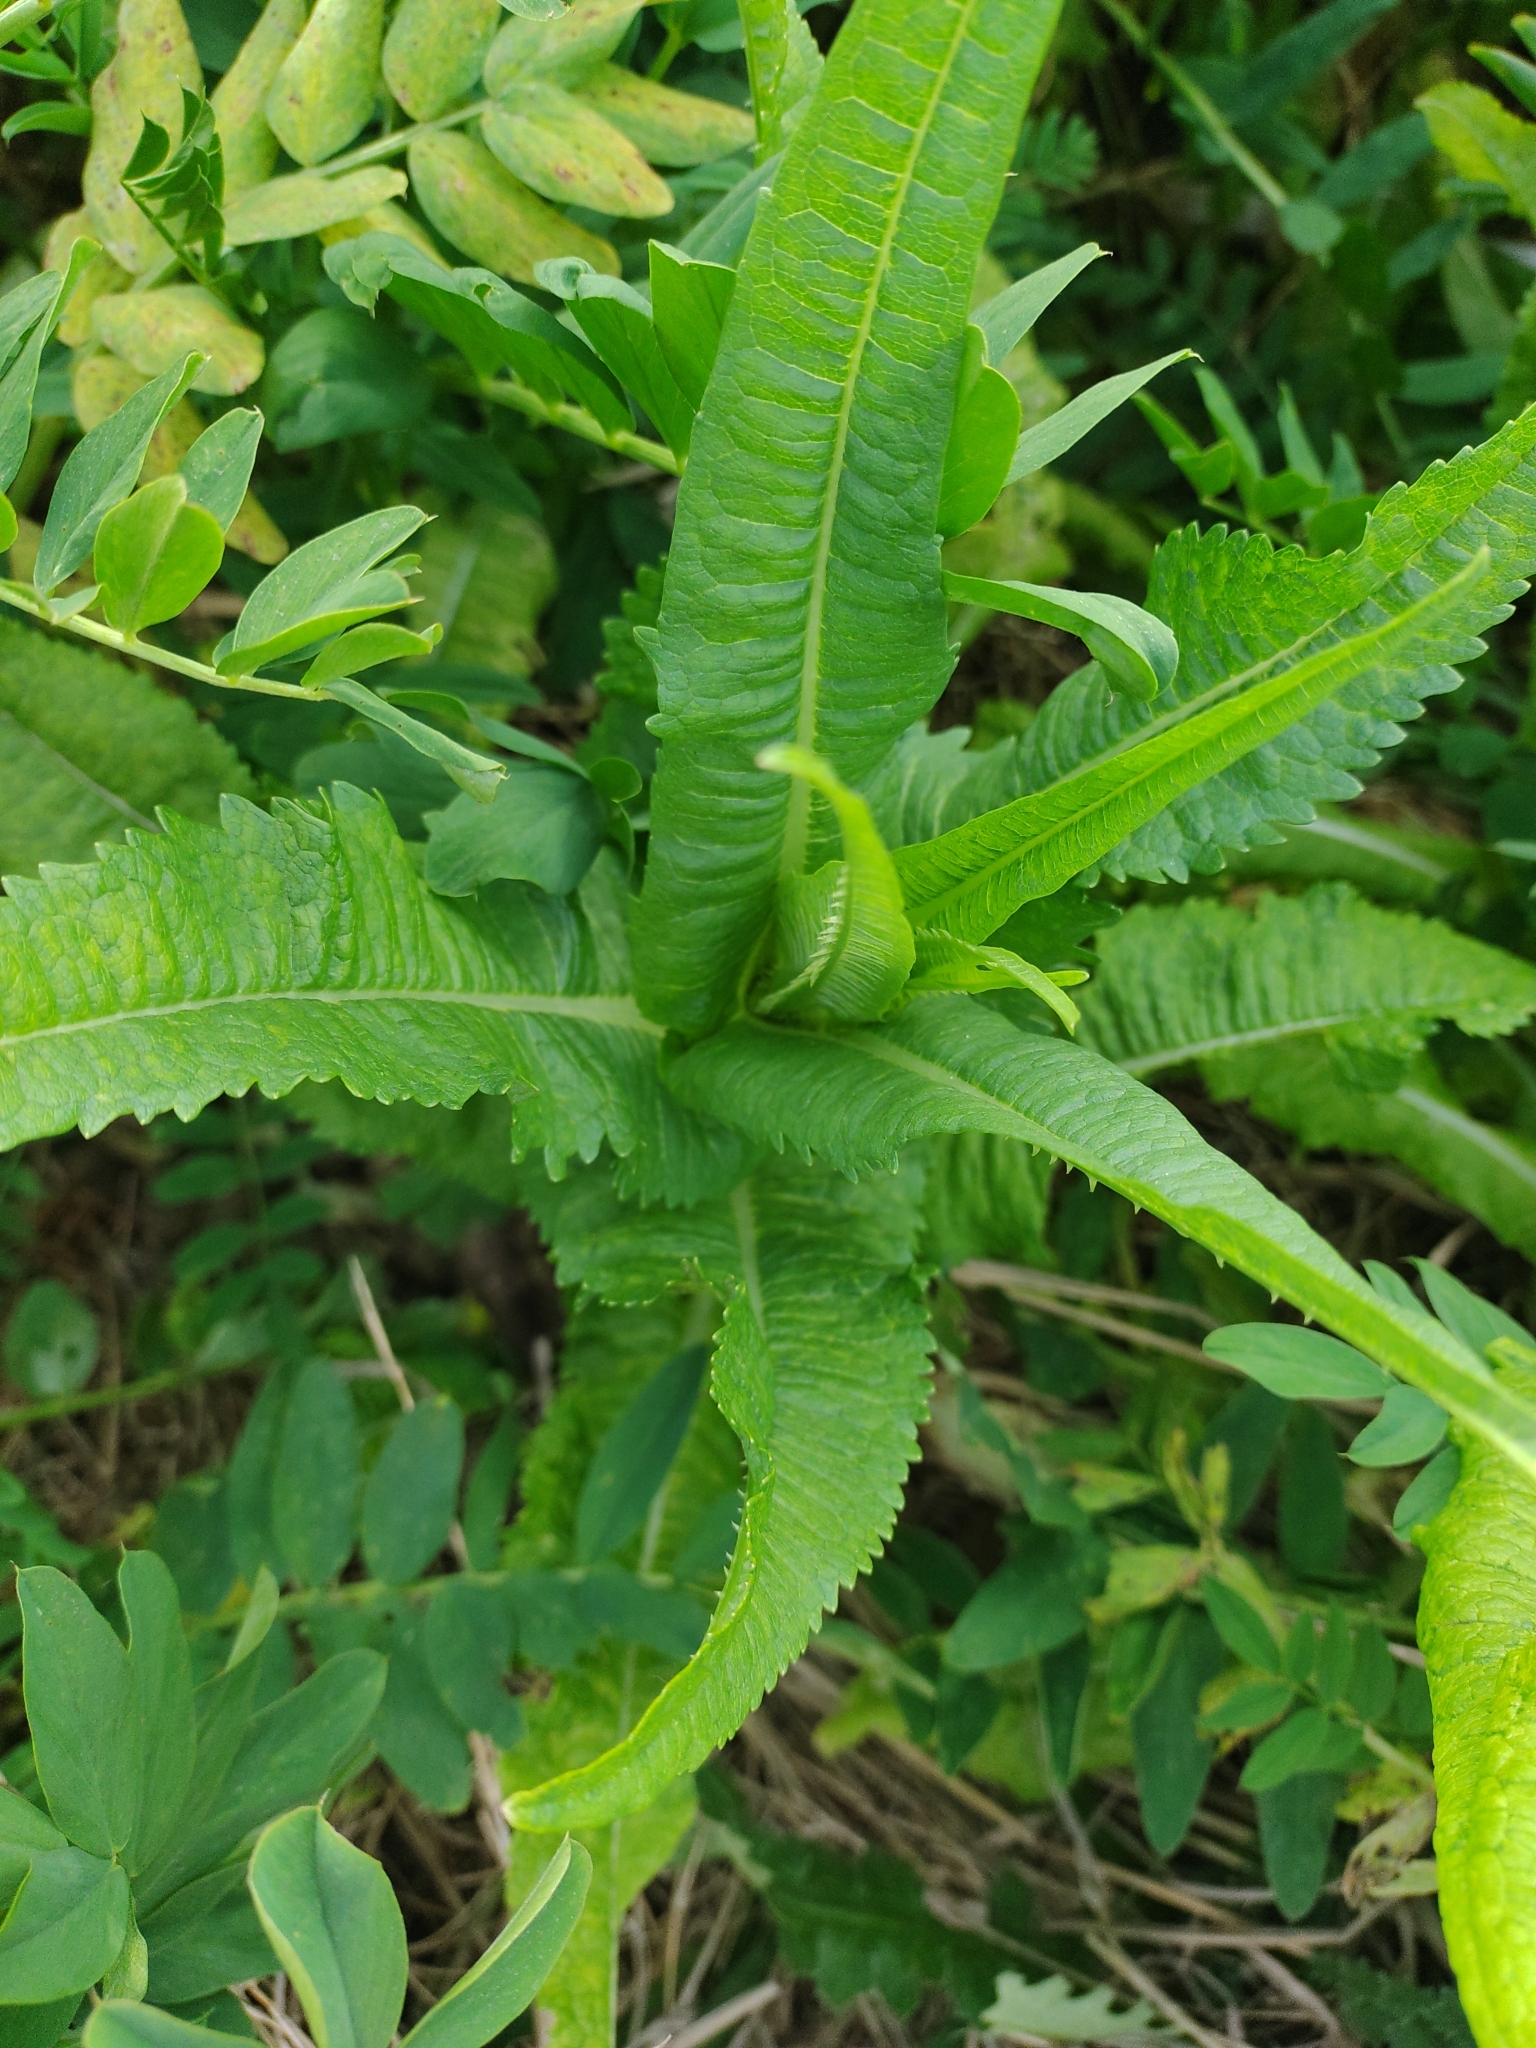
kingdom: Plantae
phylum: Tracheophyta
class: Magnoliopsida
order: Dipsacales
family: Caprifoliaceae
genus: Dipsacus
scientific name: Dipsacus fullonum
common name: Teasel
